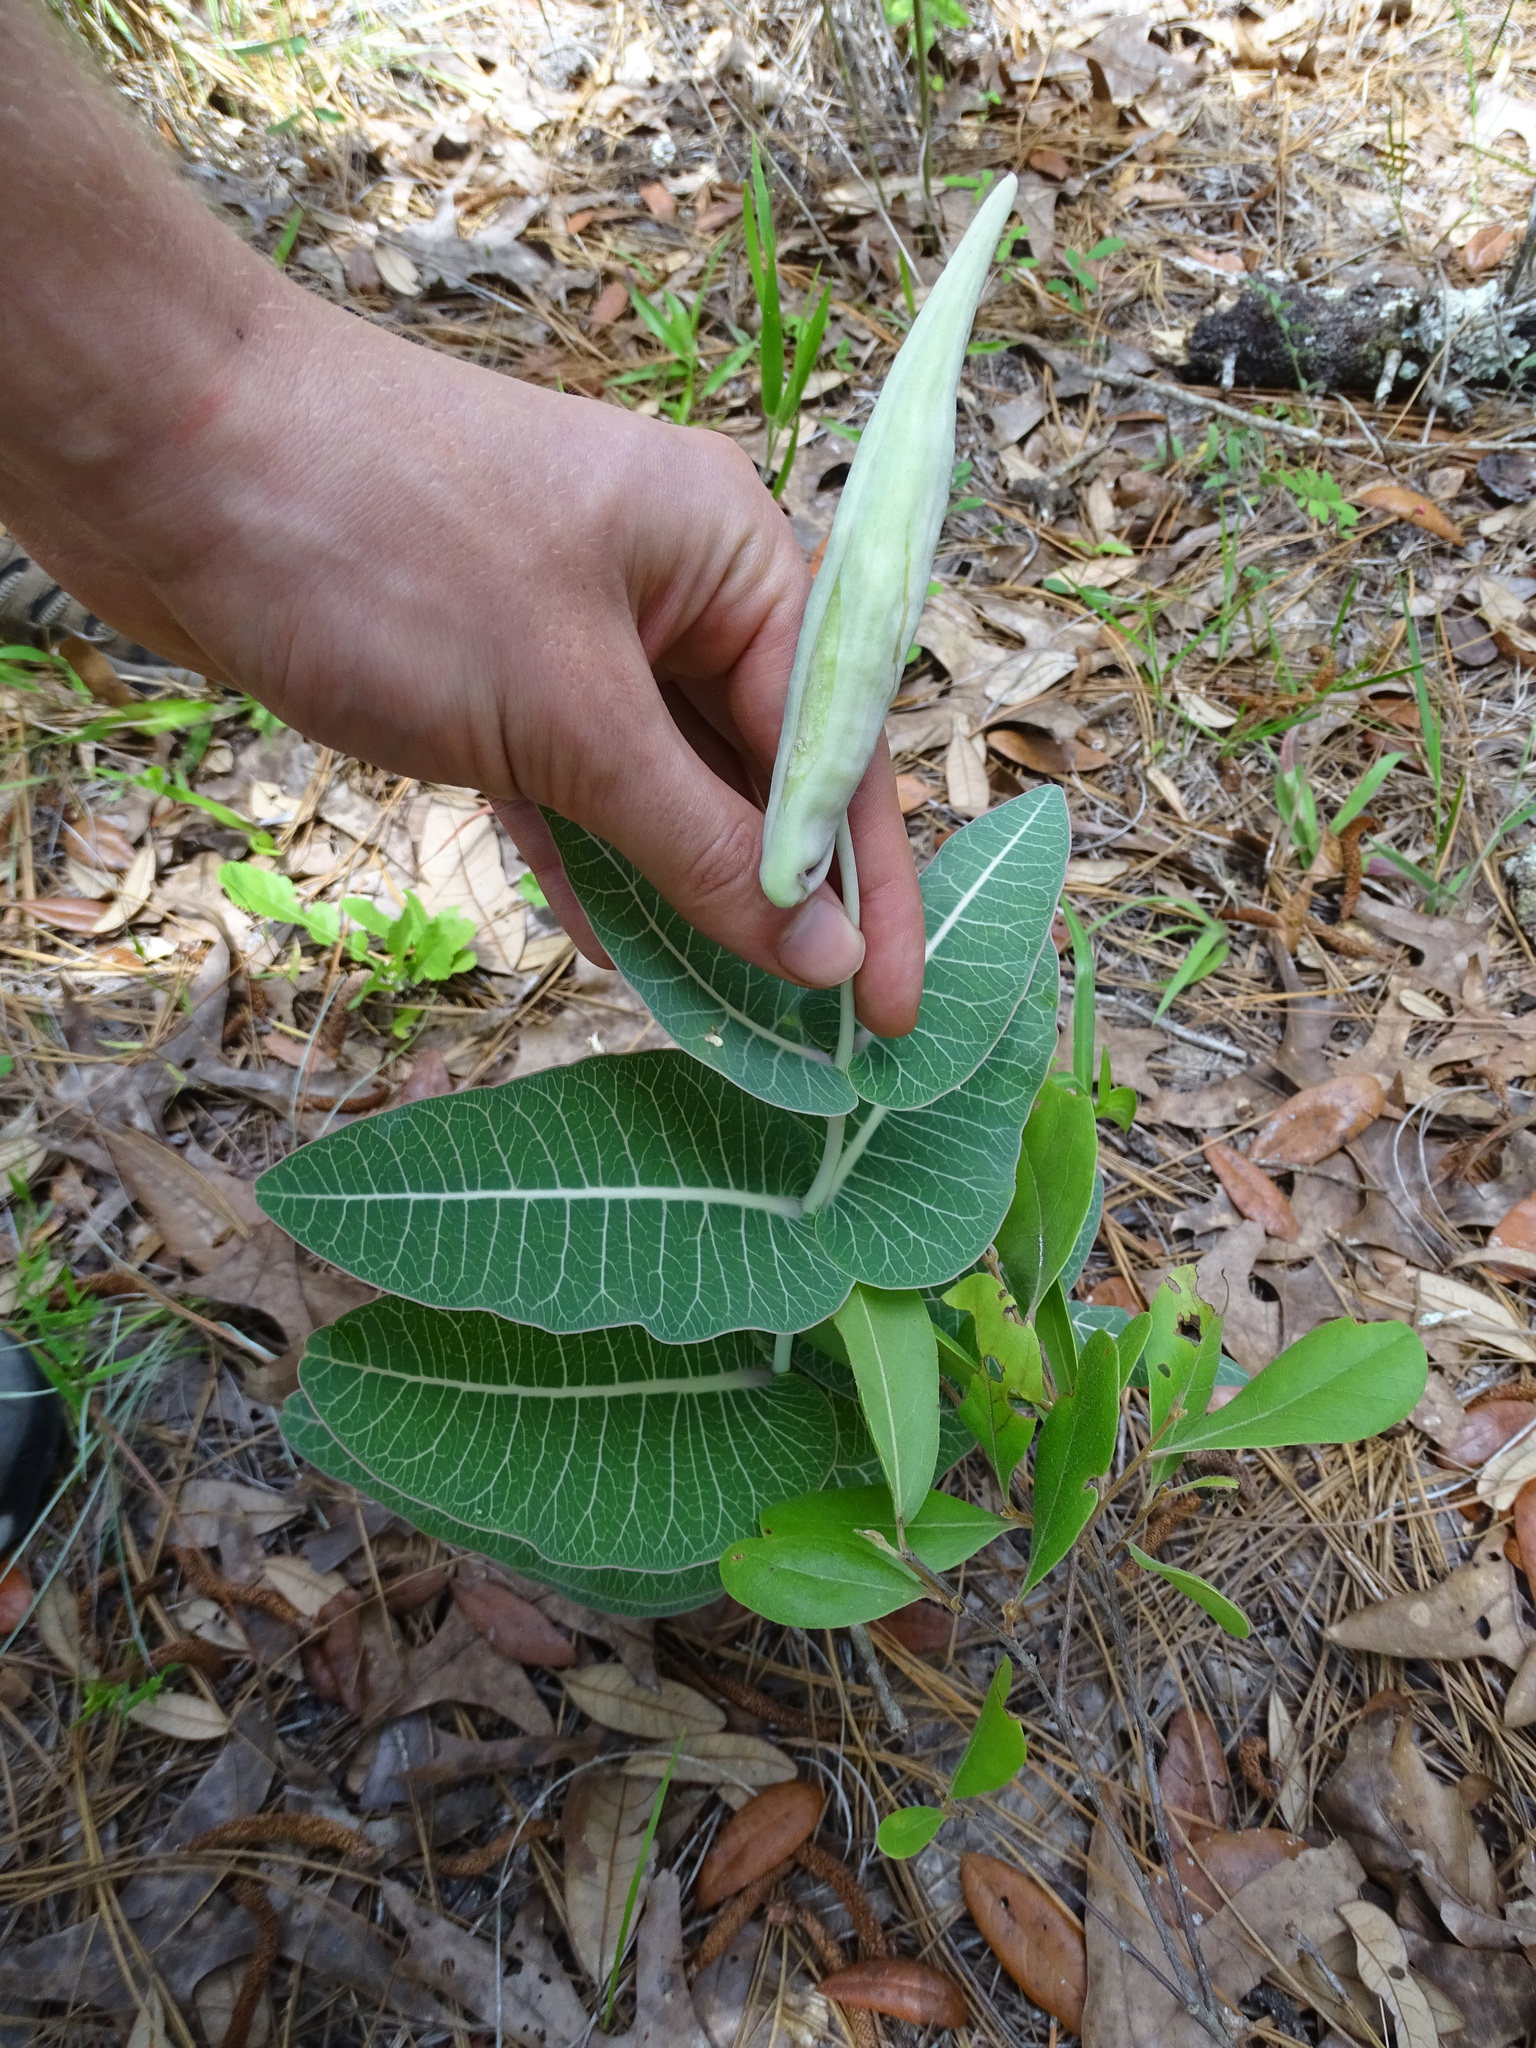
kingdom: Plantae
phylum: Tracheophyta
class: Magnoliopsida
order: Gentianales
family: Apocynaceae
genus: Asclepias
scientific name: Asclepias humistrata
